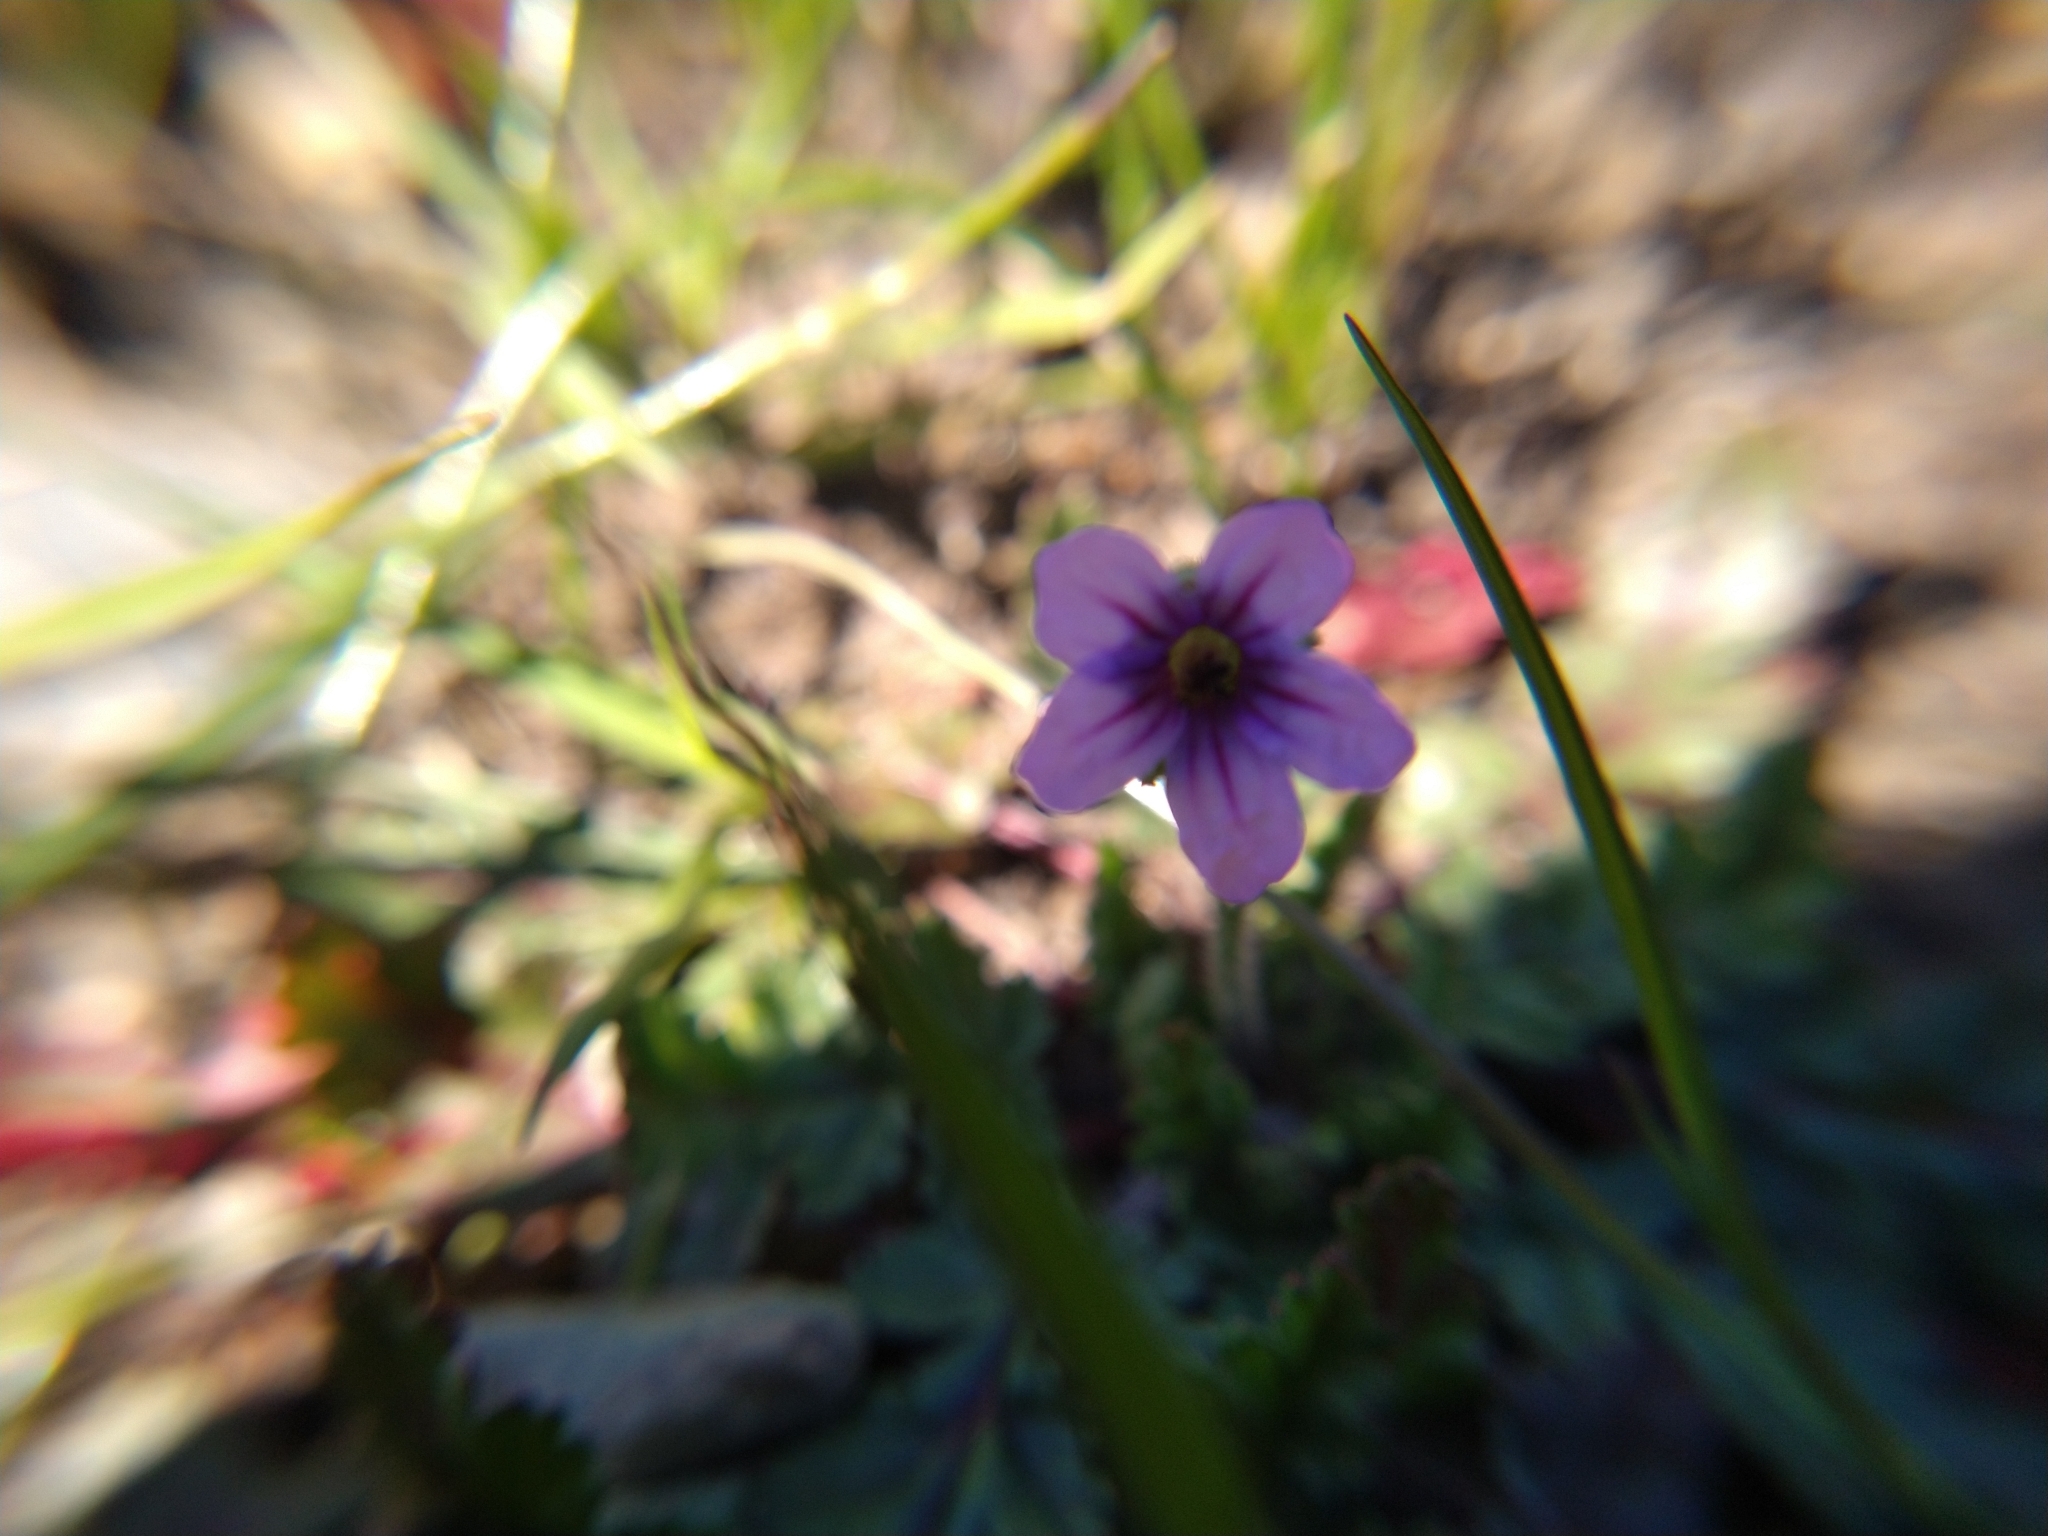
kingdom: Plantae
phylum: Tracheophyta
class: Magnoliopsida
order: Geraniales
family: Geraniaceae
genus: Erodium
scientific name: Erodium botrys
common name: Mediterranean stork's-bill
